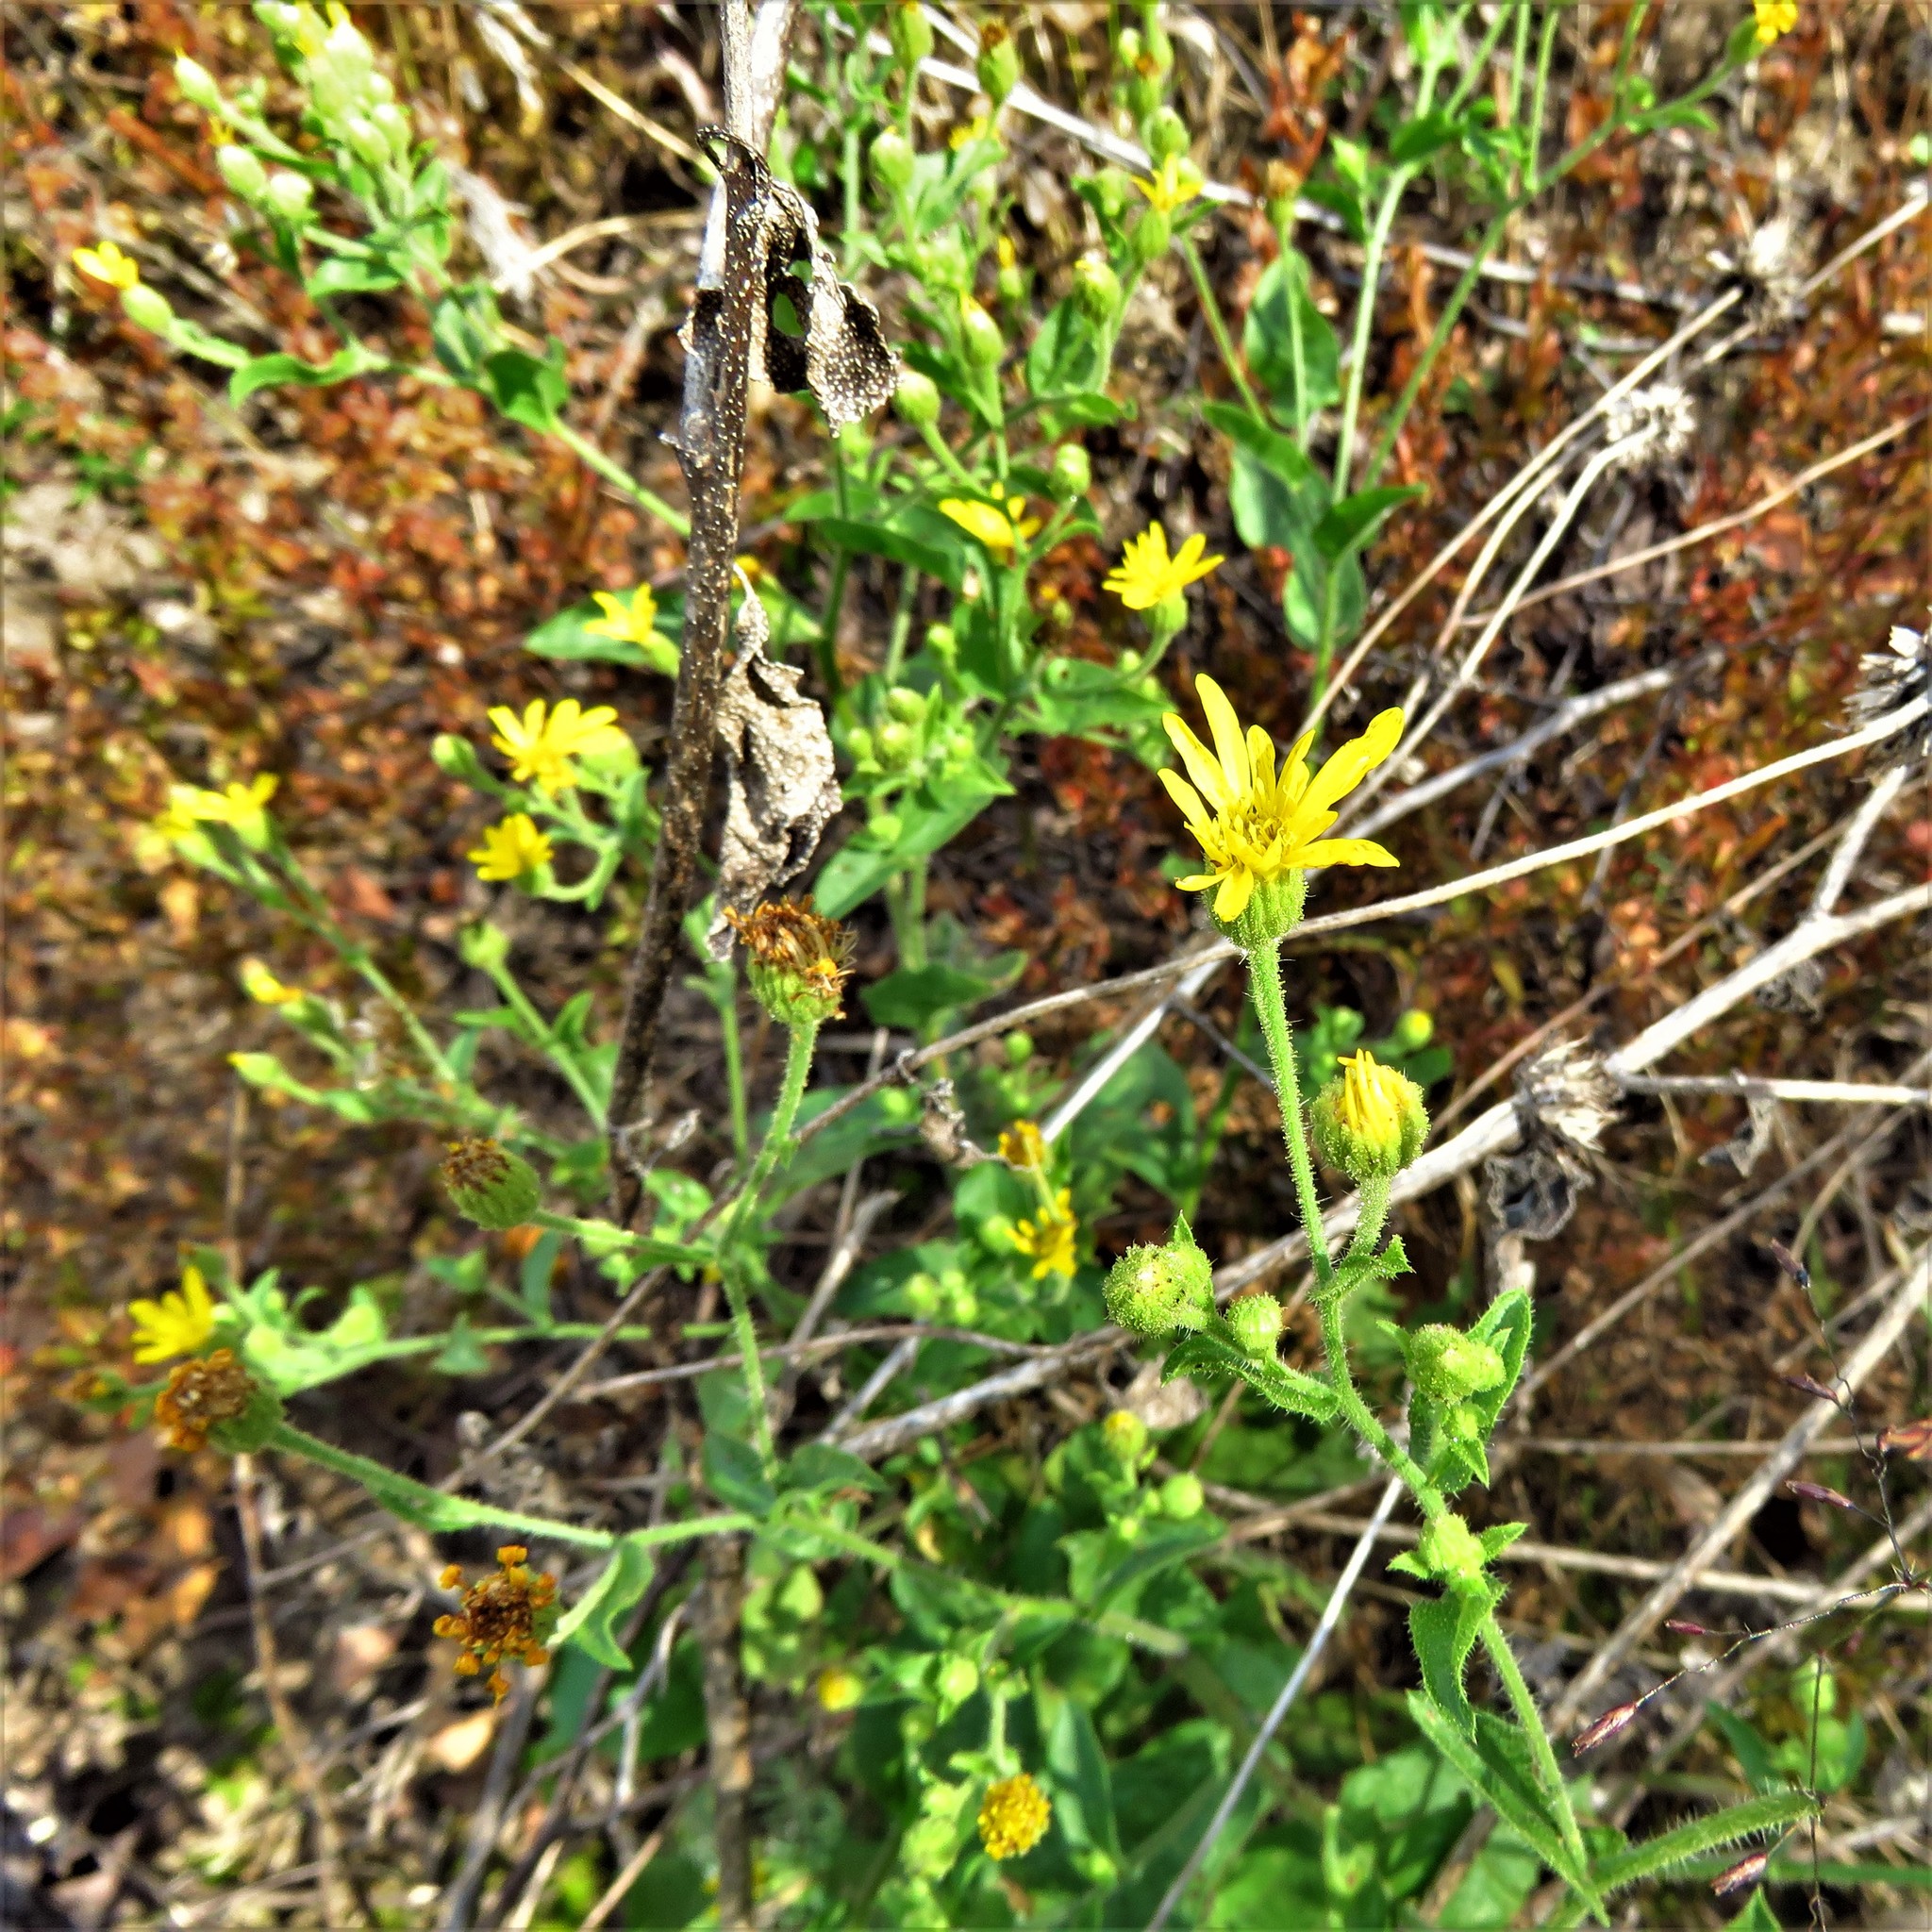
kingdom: Plantae
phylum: Tracheophyta
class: Magnoliopsida
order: Asterales
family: Asteraceae
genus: Heterotheca
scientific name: Heterotheca subaxillaris
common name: Camphorweed
